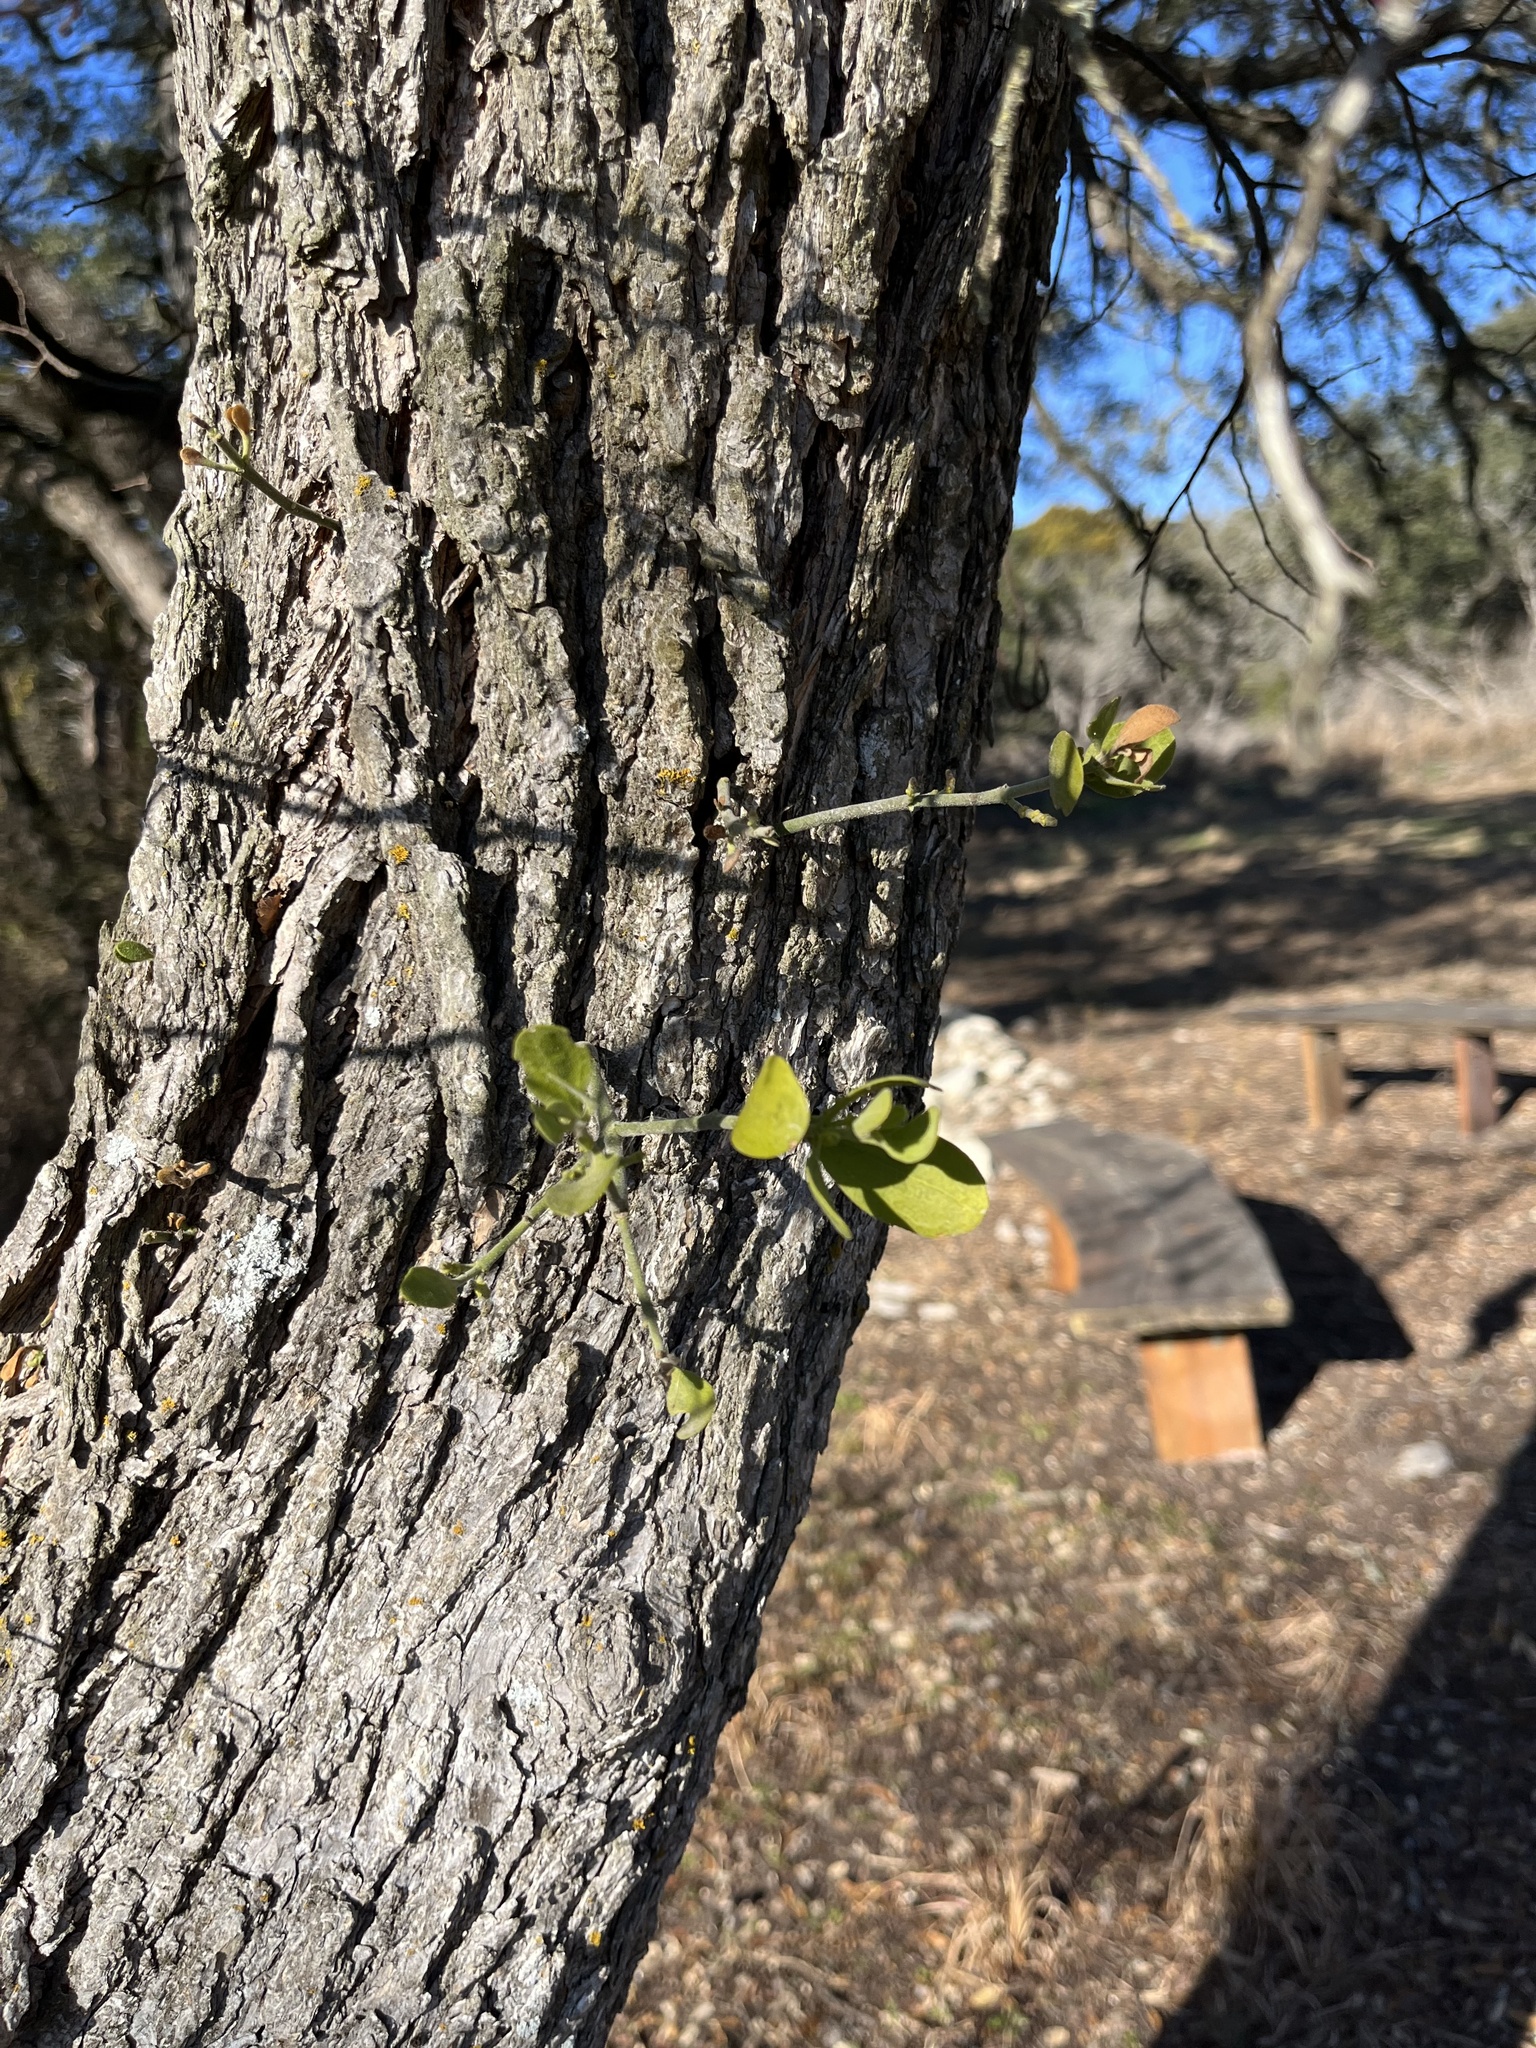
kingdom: Plantae
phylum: Tracheophyta
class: Magnoliopsida
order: Santalales
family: Viscaceae
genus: Phoradendron
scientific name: Phoradendron leucarpum
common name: Pacific mistletoe
